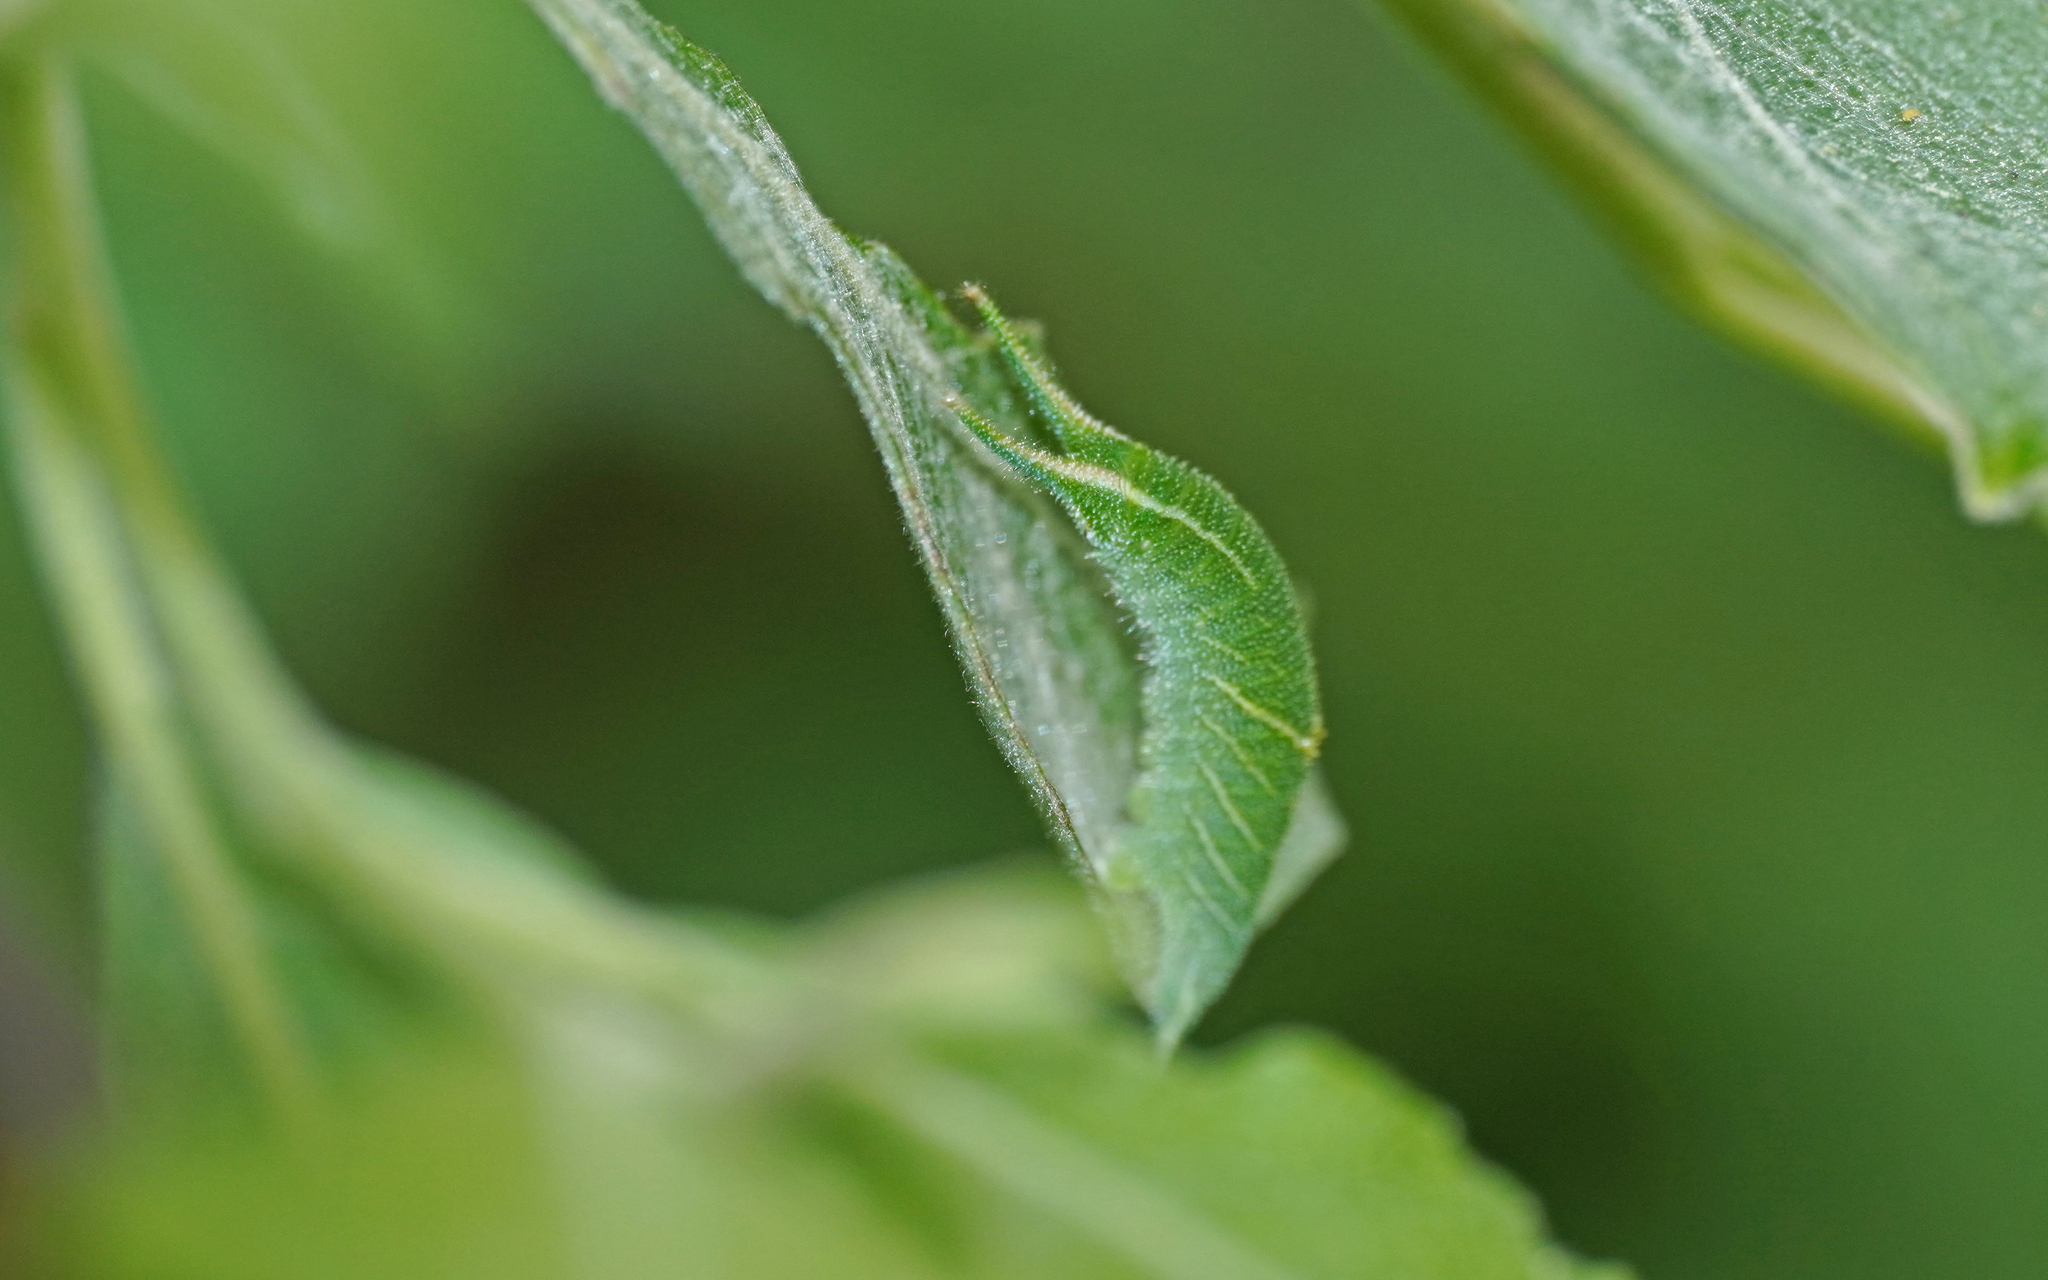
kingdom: Animalia
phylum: Arthropoda
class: Insecta
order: Lepidoptera
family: Nymphalidae
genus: Apatura
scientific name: Apatura iris
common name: Purple emperor
